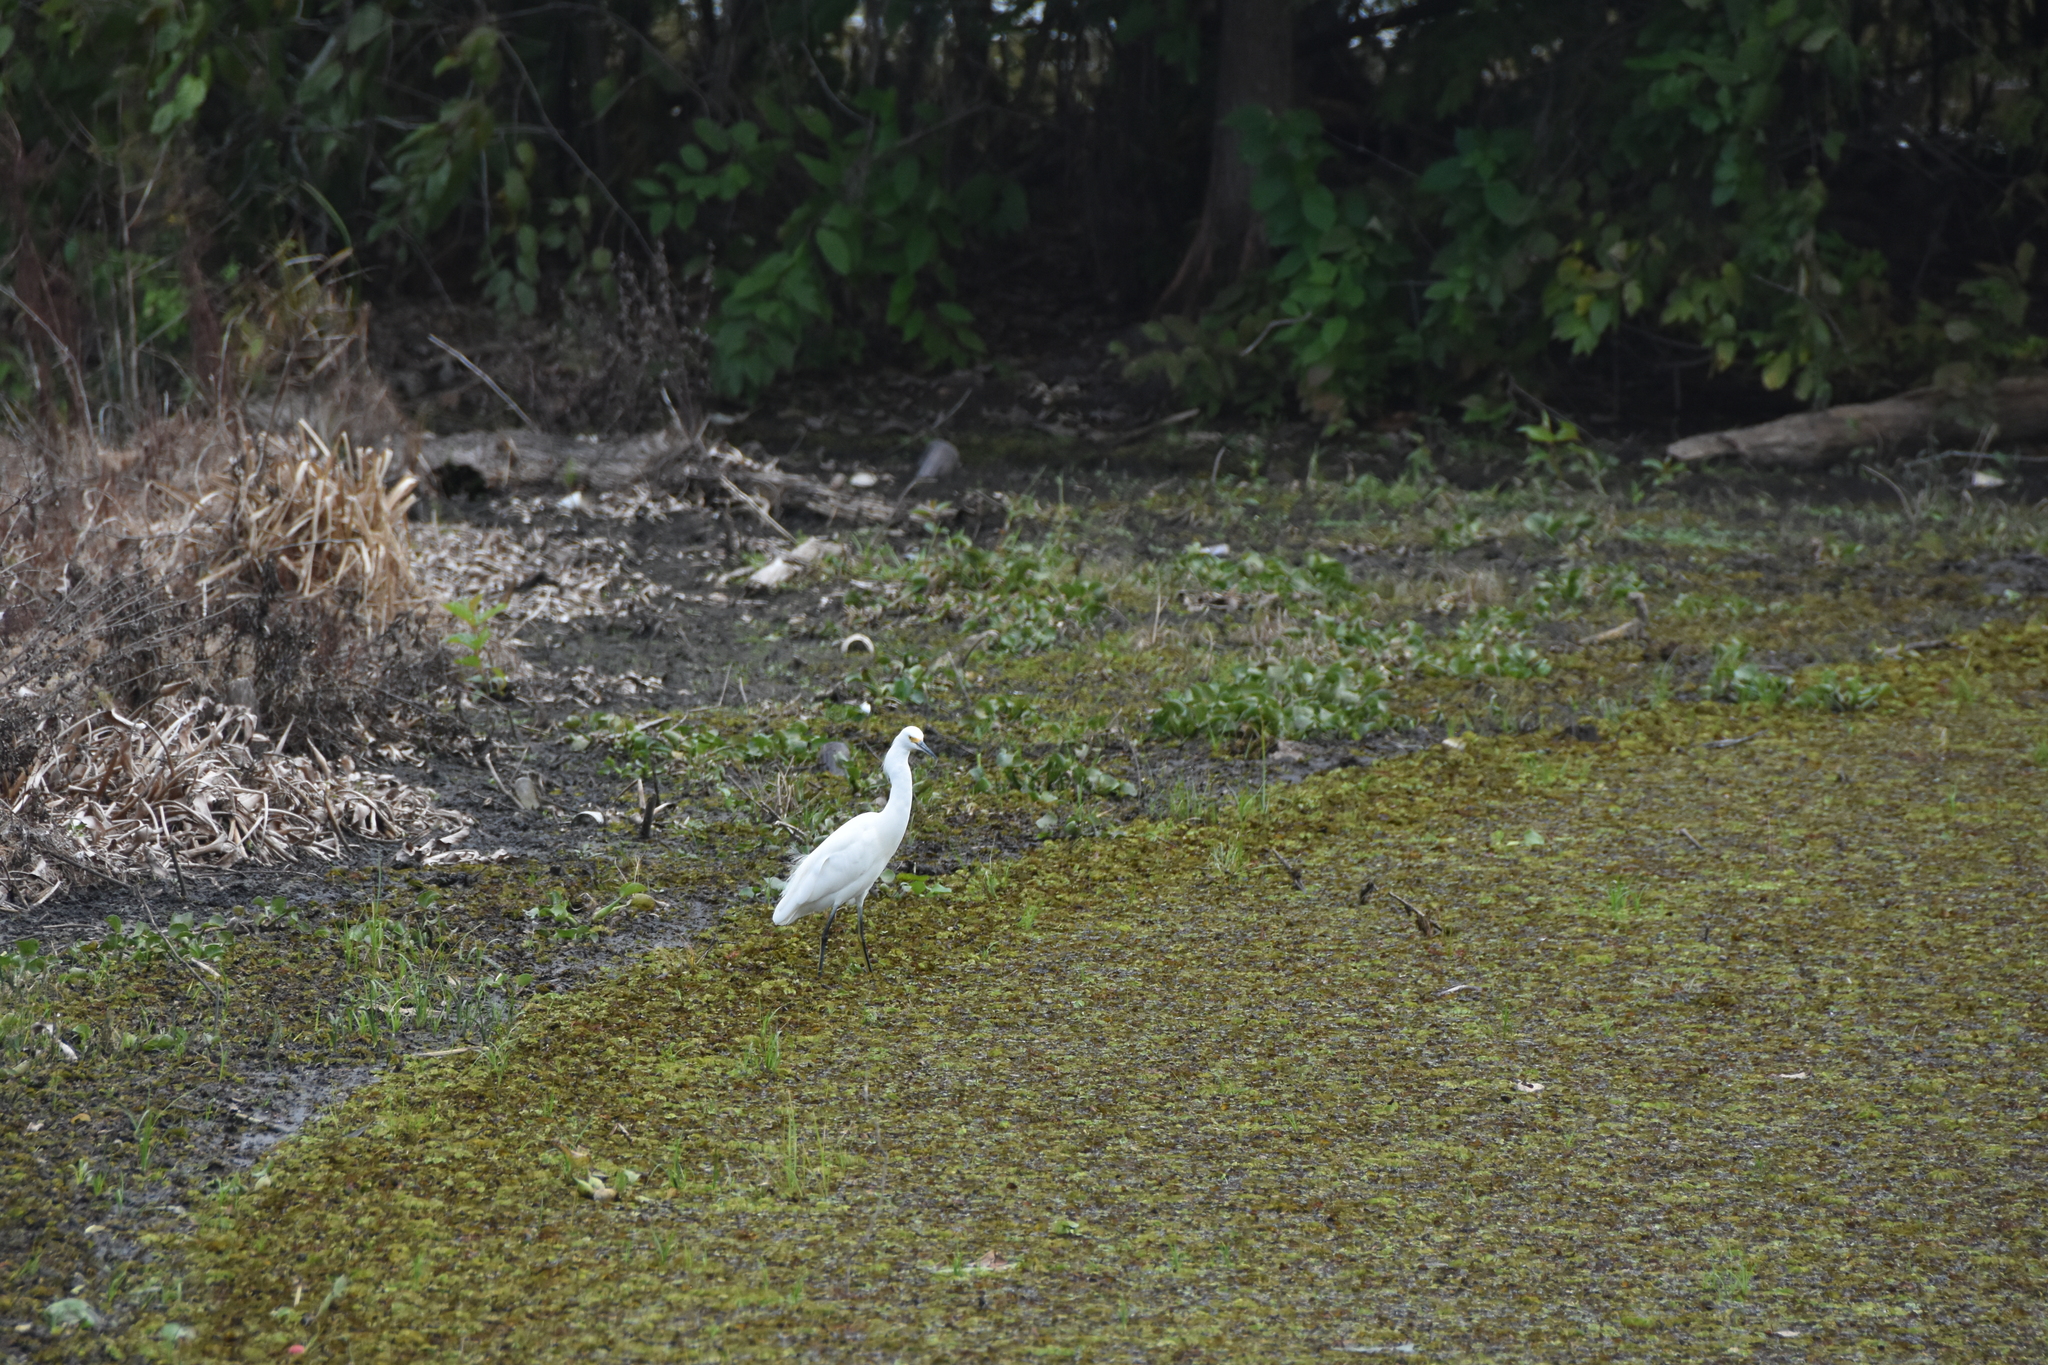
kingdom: Animalia
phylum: Chordata
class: Aves
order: Pelecaniformes
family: Ardeidae
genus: Egretta
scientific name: Egretta thula
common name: Snowy egret
